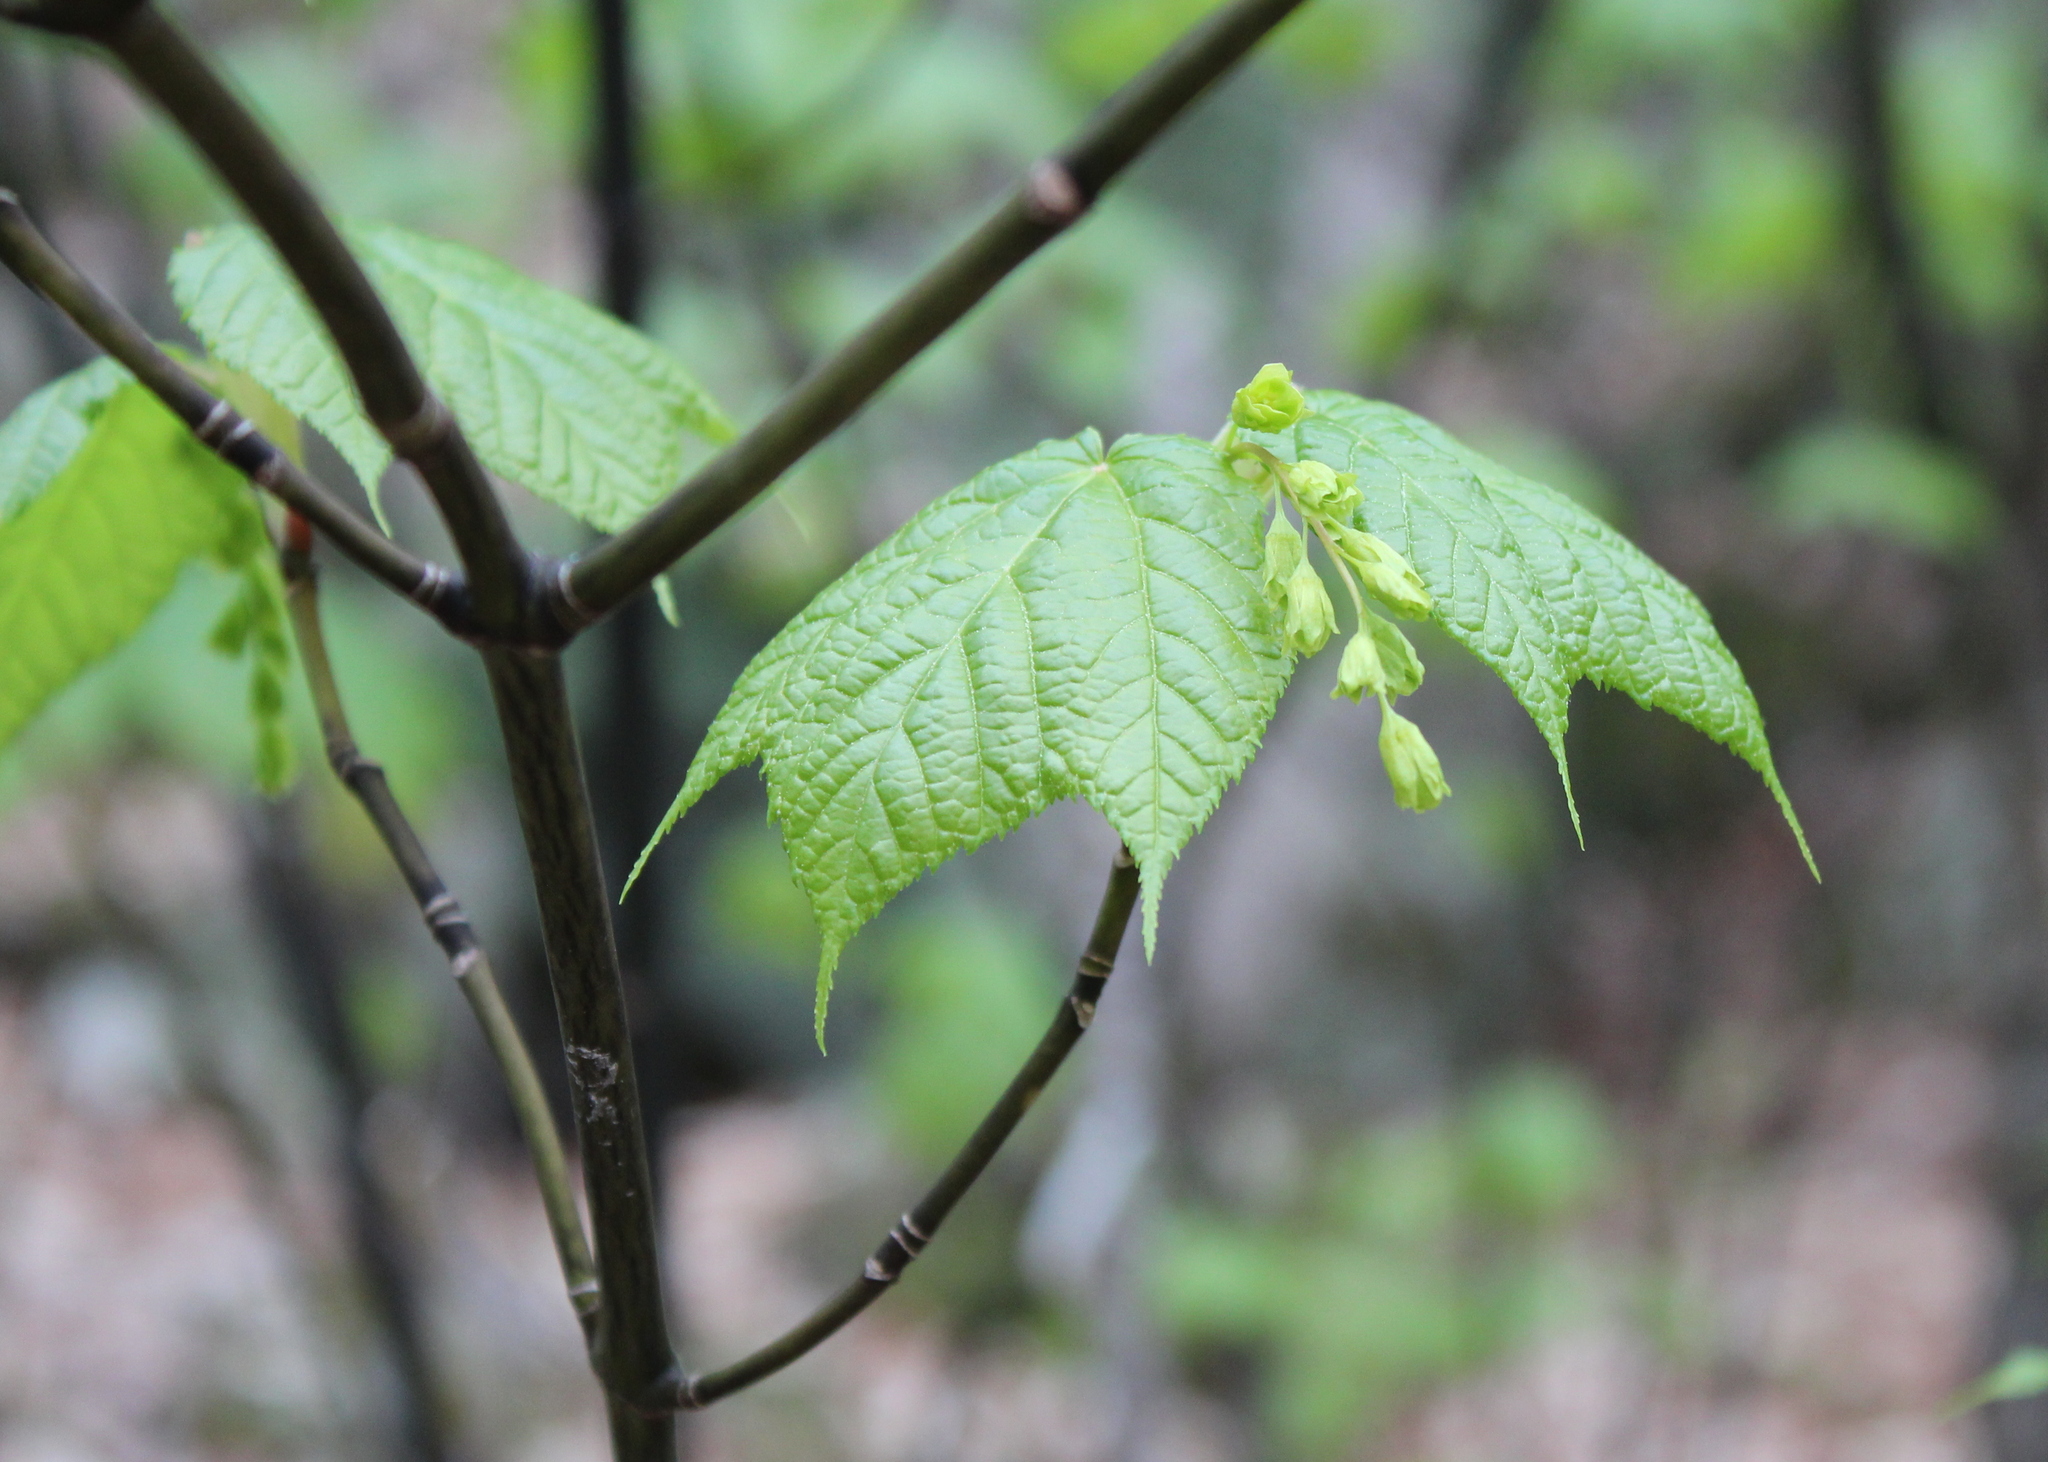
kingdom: Plantae
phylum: Tracheophyta
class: Magnoliopsida
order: Sapindales
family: Sapindaceae
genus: Acer
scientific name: Acer pensylvanicum
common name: Moosewood
